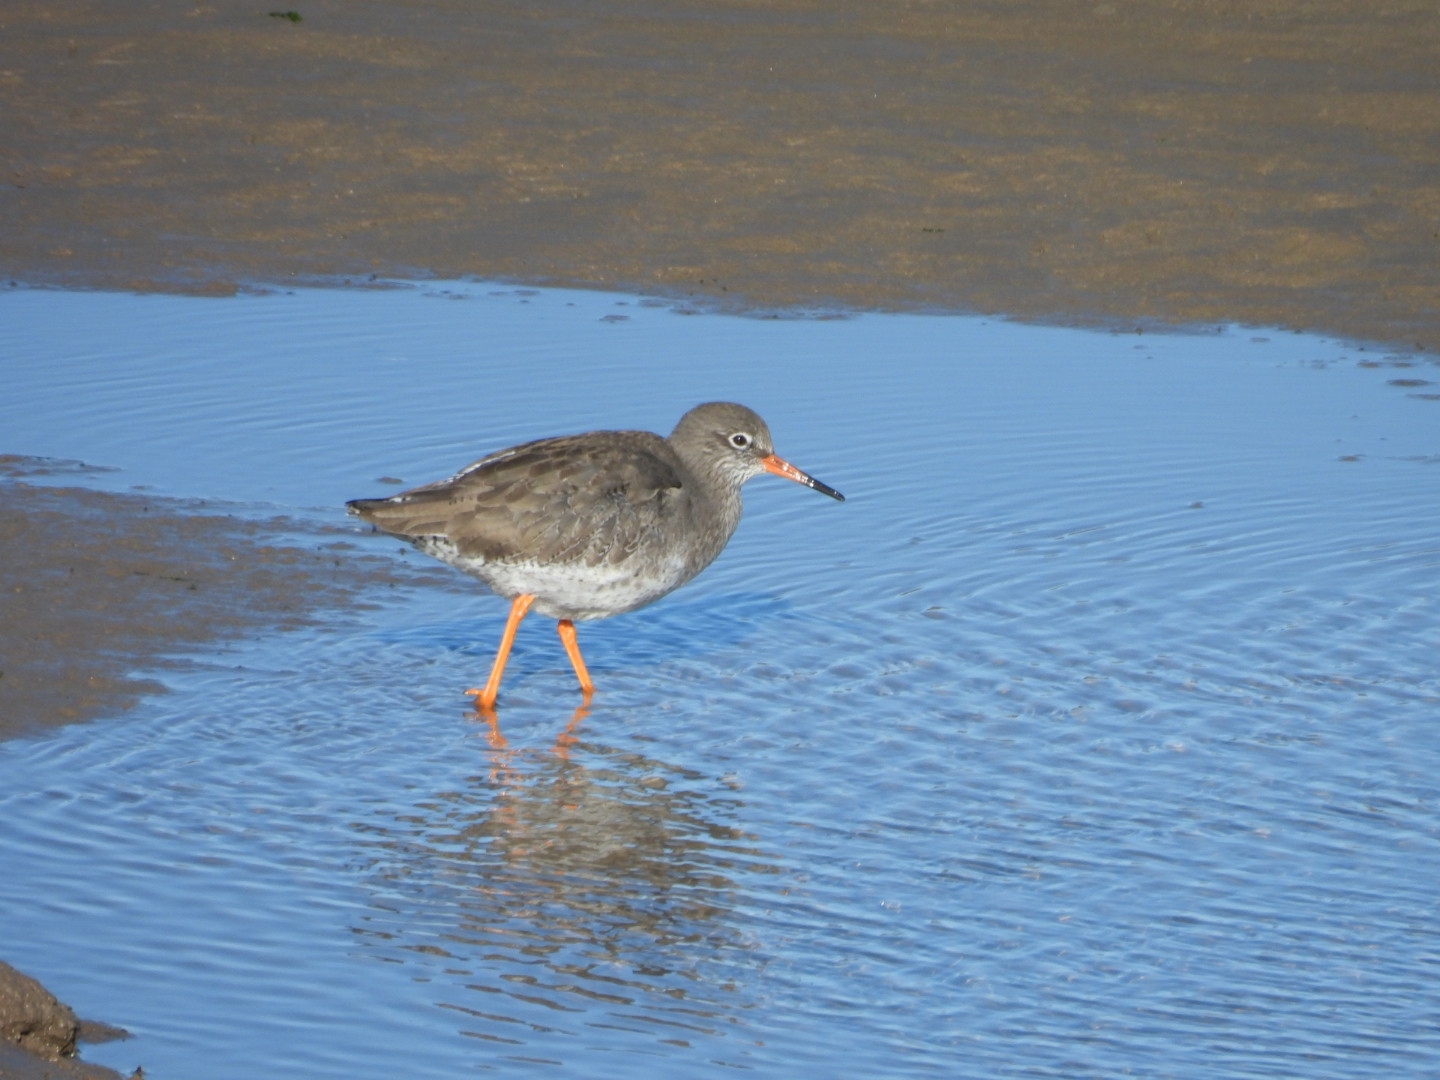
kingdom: Animalia
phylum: Chordata
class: Aves
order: Charadriiformes
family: Scolopacidae
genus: Tringa
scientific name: Tringa totanus
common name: Common redshank
